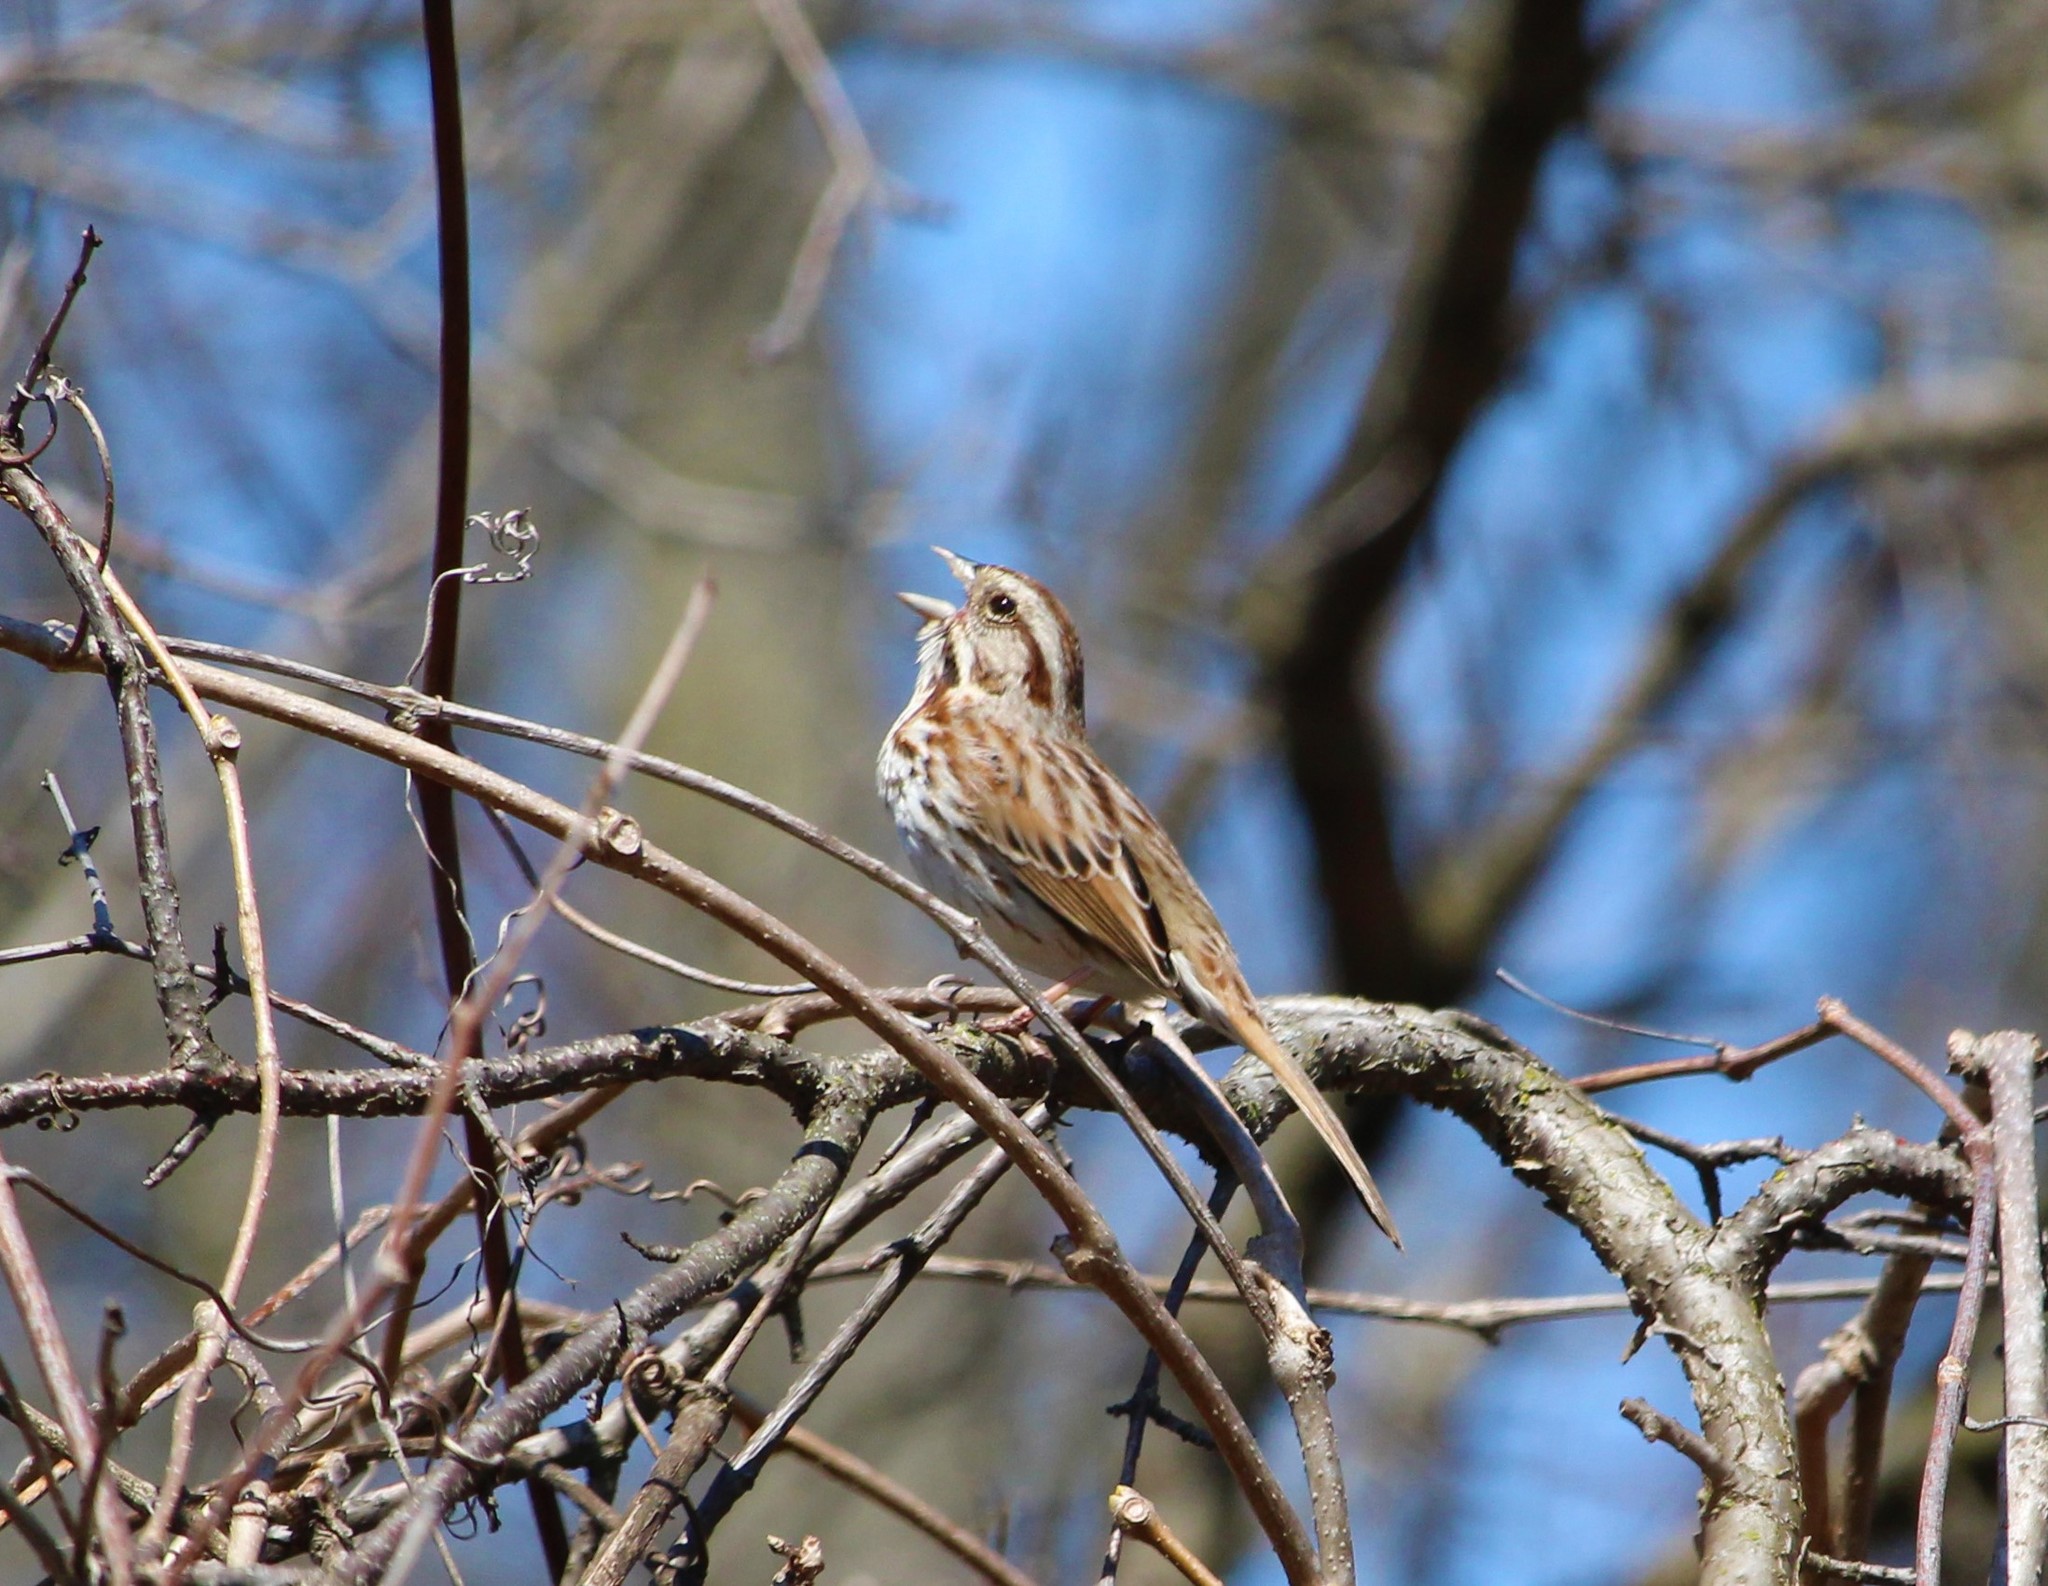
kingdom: Animalia
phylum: Chordata
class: Aves
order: Passeriformes
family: Passerellidae
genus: Melospiza
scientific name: Melospiza melodia
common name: Song sparrow
